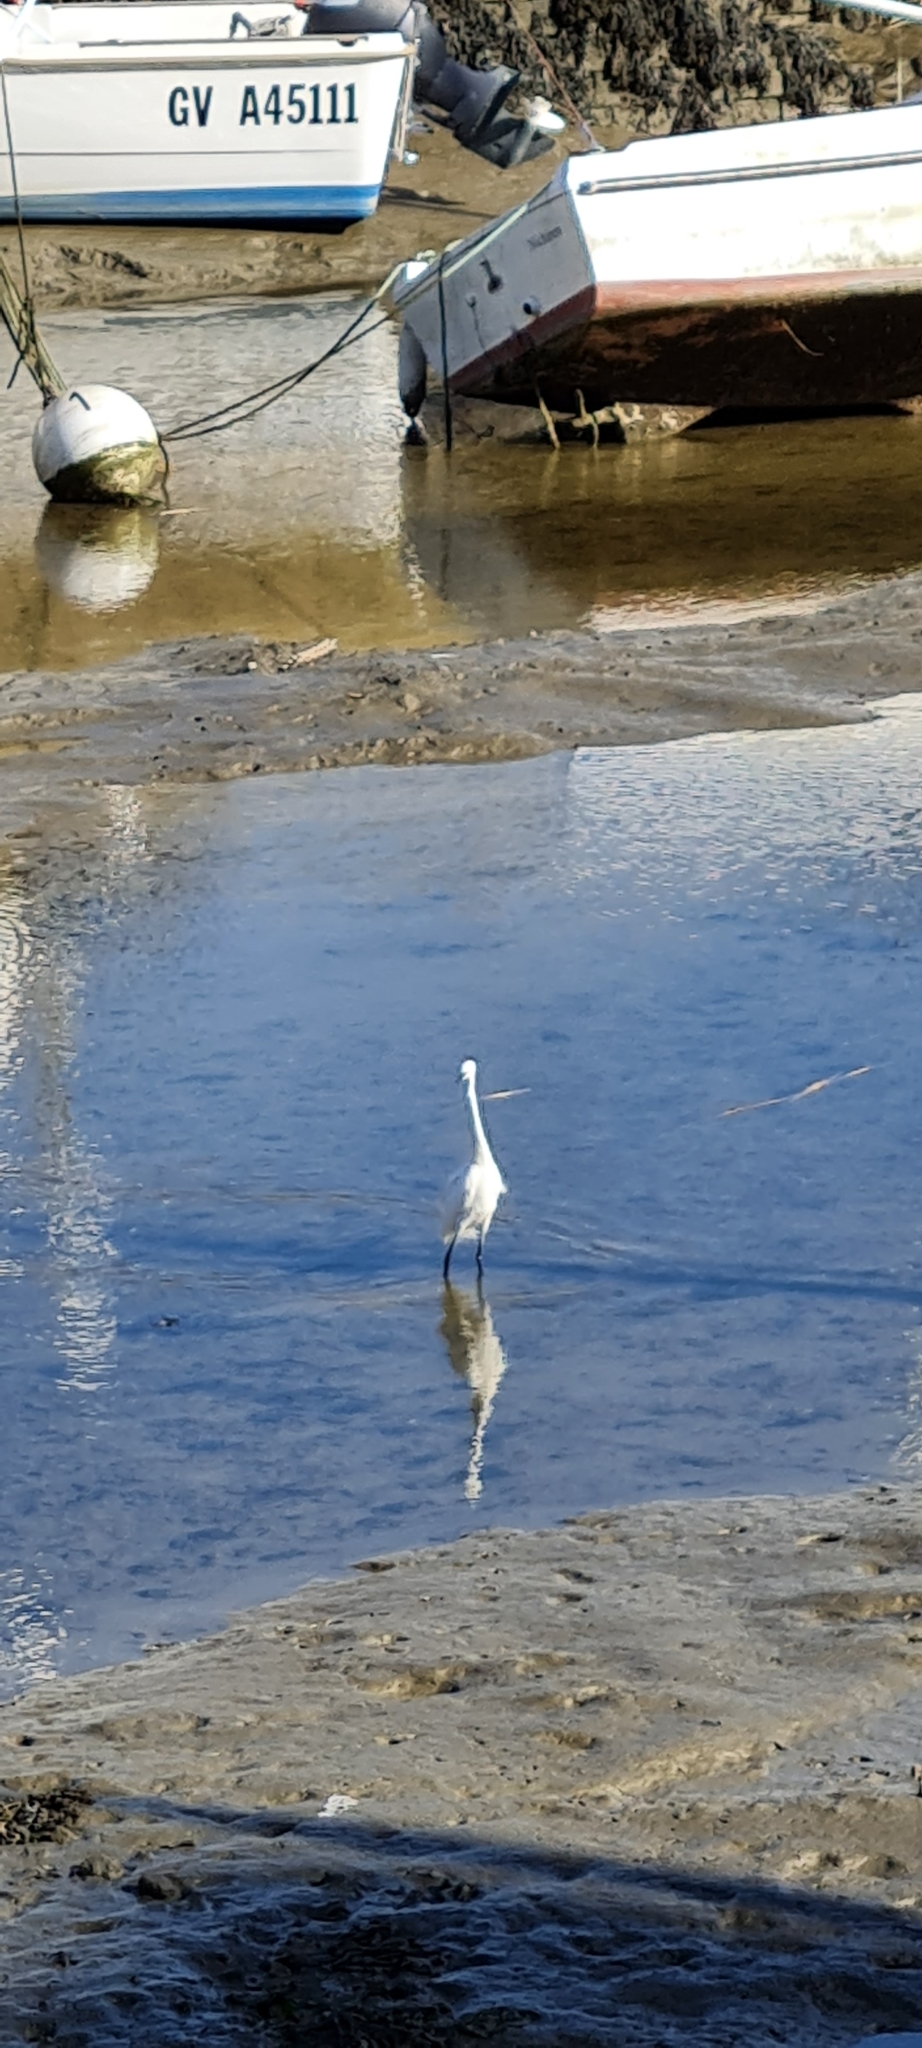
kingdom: Animalia
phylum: Chordata
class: Aves
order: Pelecaniformes
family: Ardeidae
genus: Egretta
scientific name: Egretta garzetta
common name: Little egret
